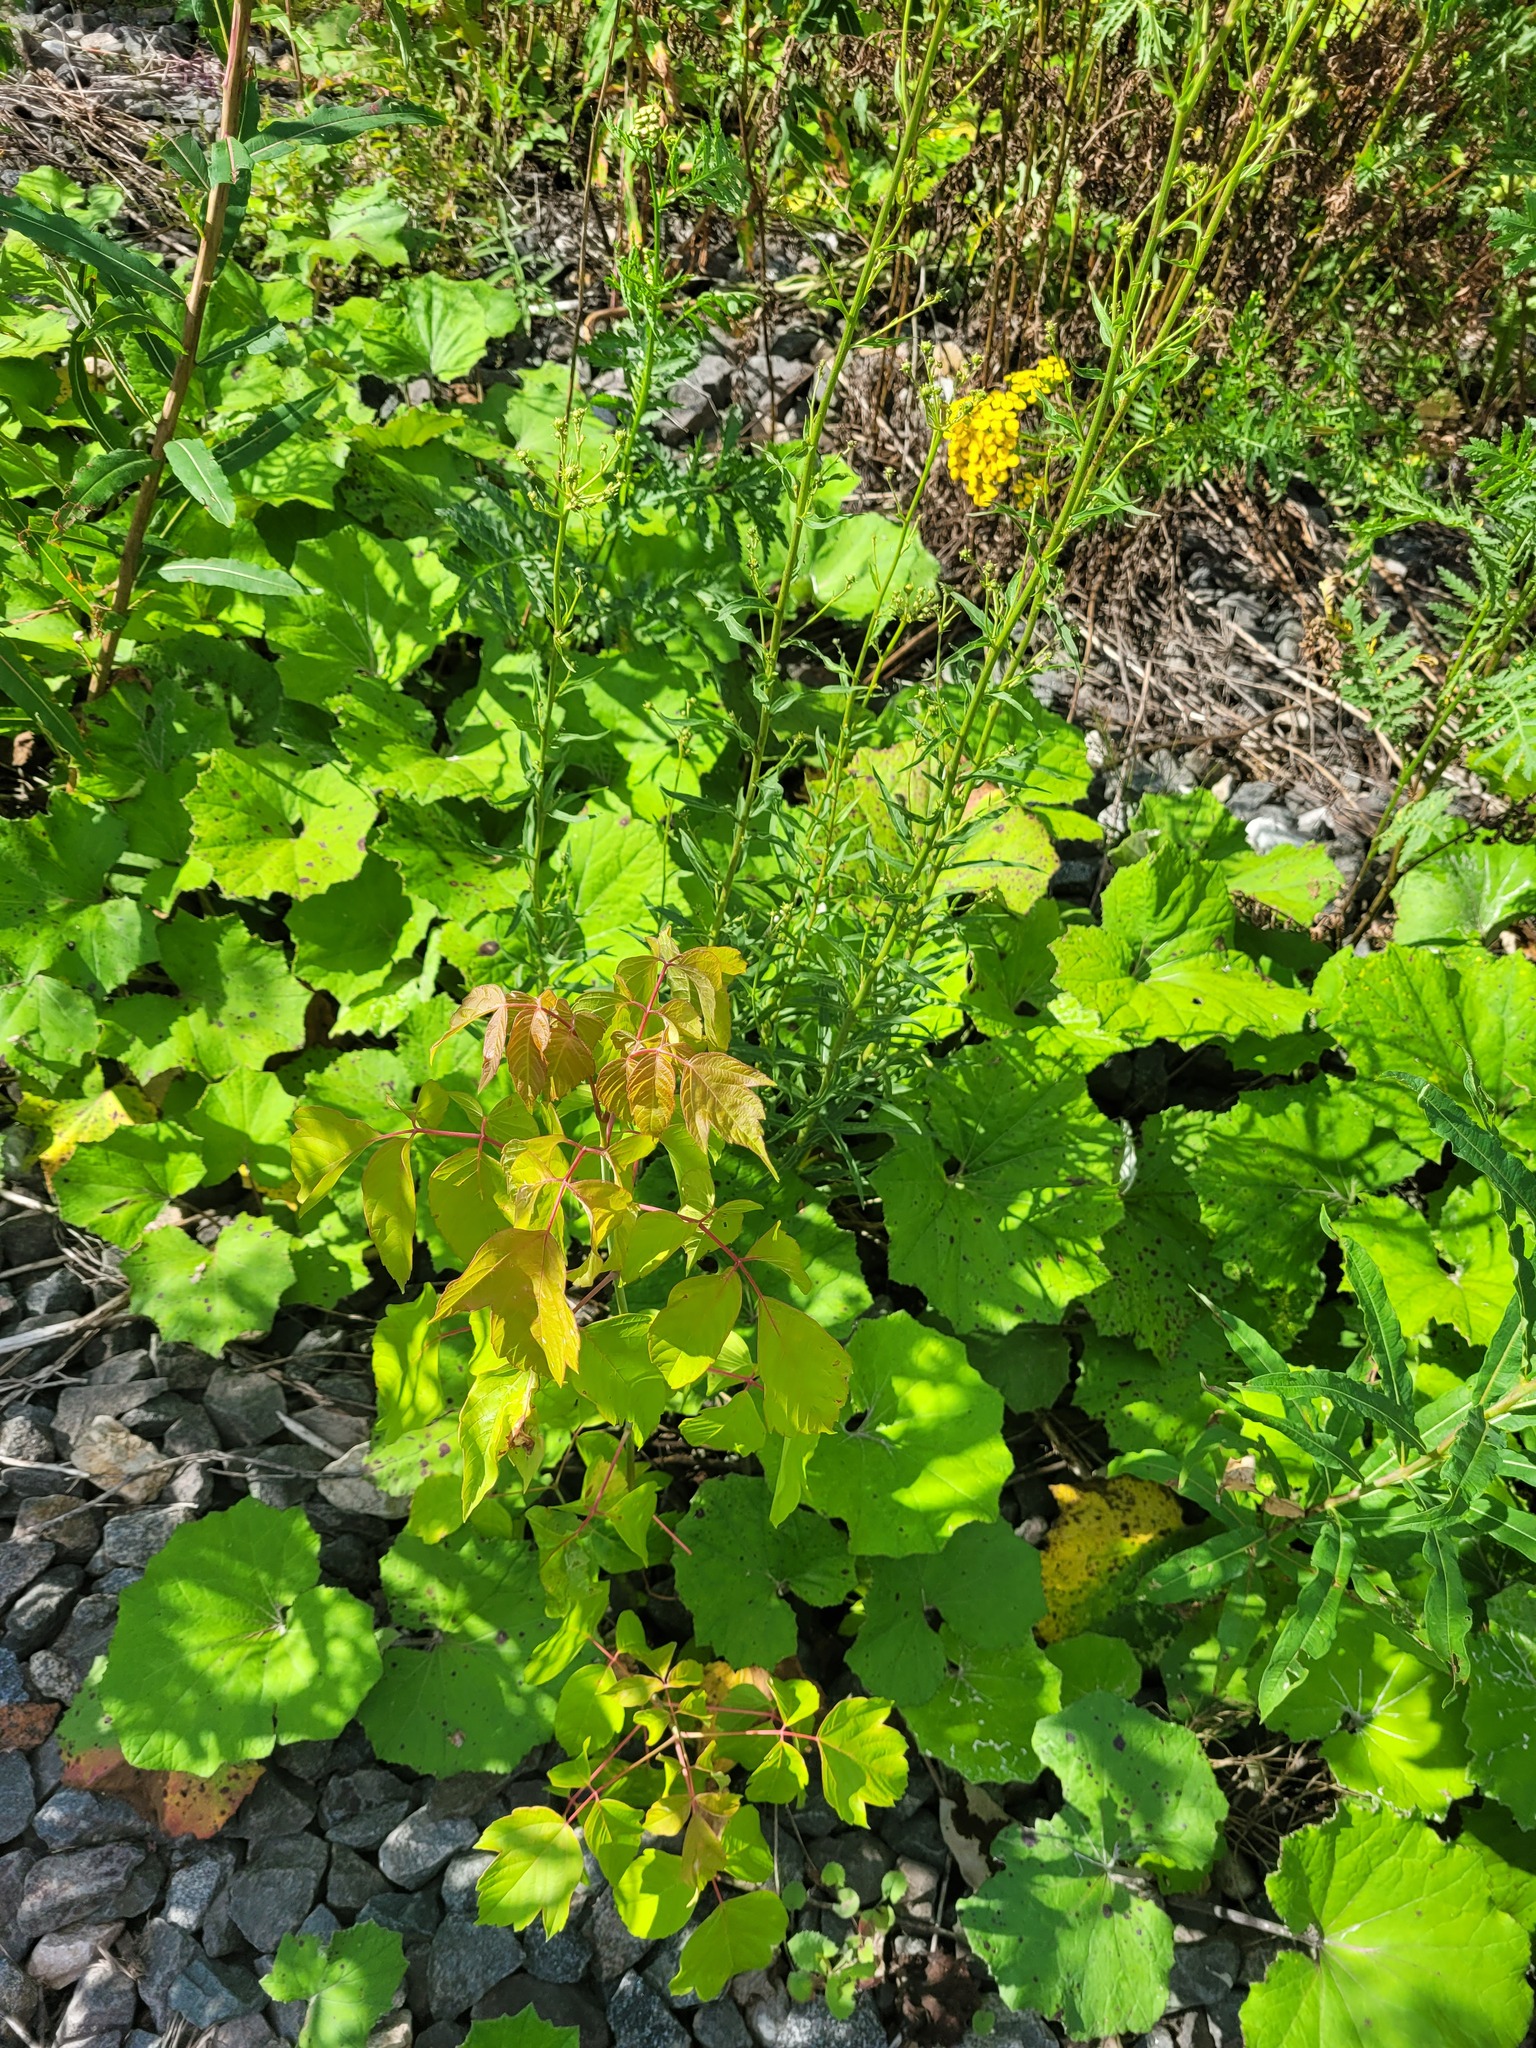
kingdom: Plantae
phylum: Tracheophyta
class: Magnoliopsida
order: Sapindales
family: Sapindaceae
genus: Acer
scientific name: Acer negundo
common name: Ashleaf maple
